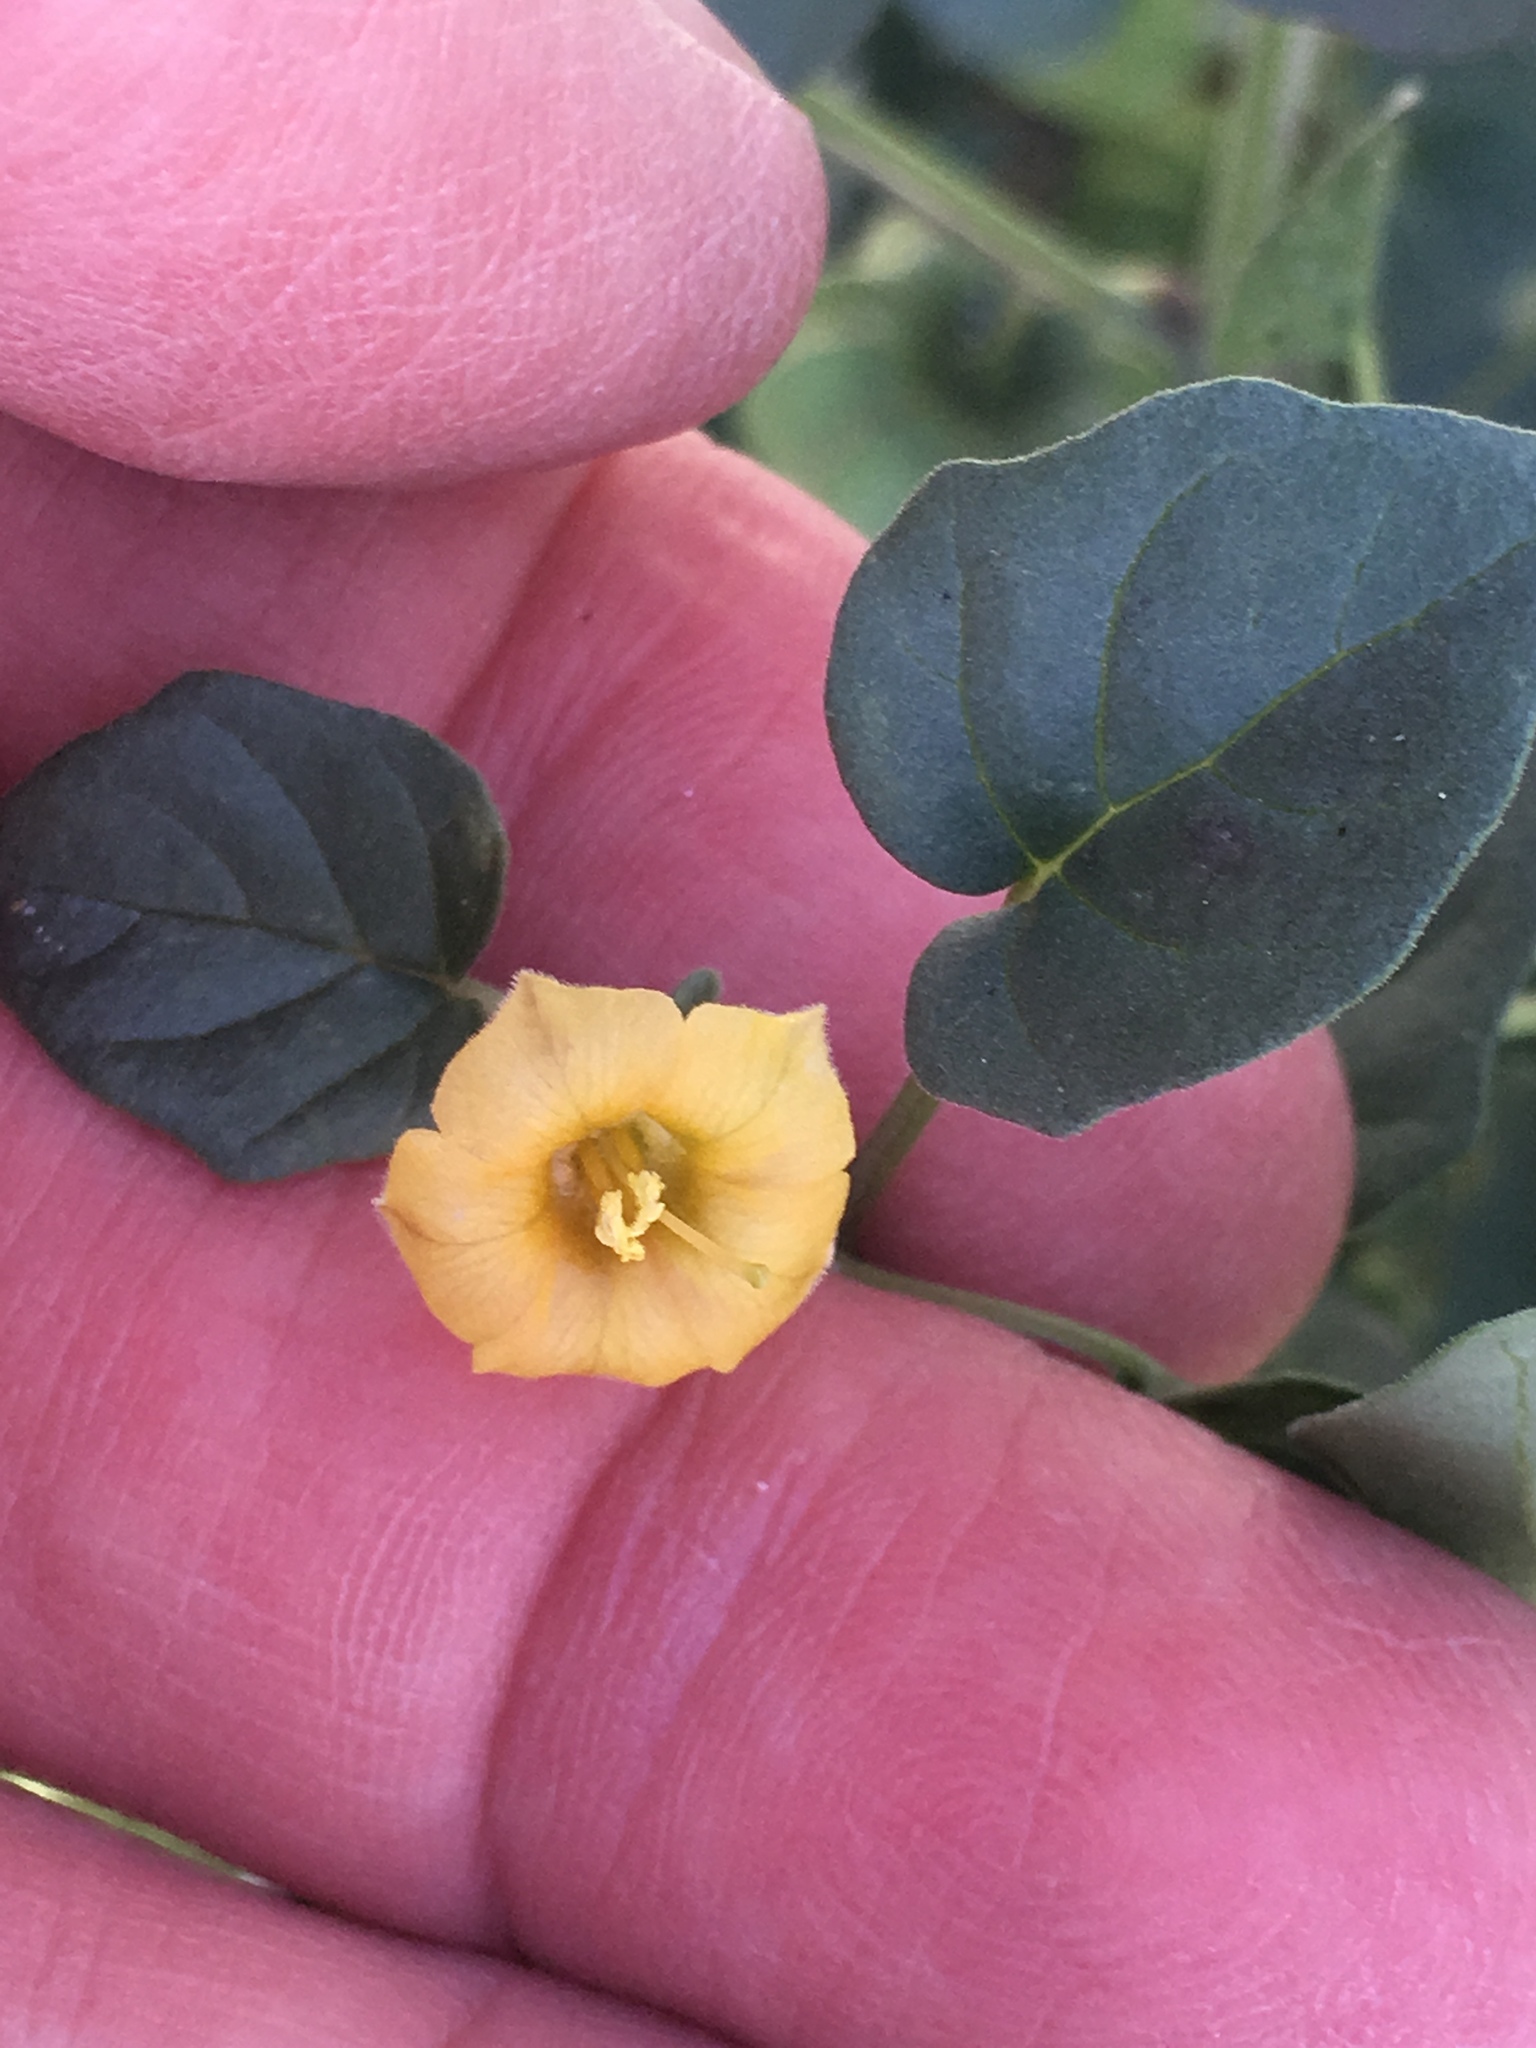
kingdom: Plantae
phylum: Tracheophyta
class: Magnoliopsida
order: Solanales
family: Solanaceae
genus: Physalis
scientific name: Physalis crassifolia
